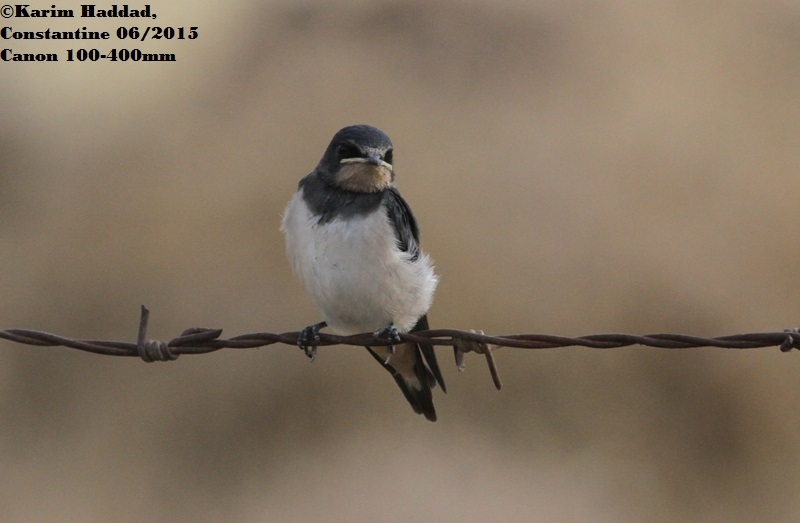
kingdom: Animalia
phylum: Chordata
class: Aves
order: Passeriformes
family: Hirundinidae
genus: Hirundo
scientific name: Hirundo rustica
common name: Barn swallow
